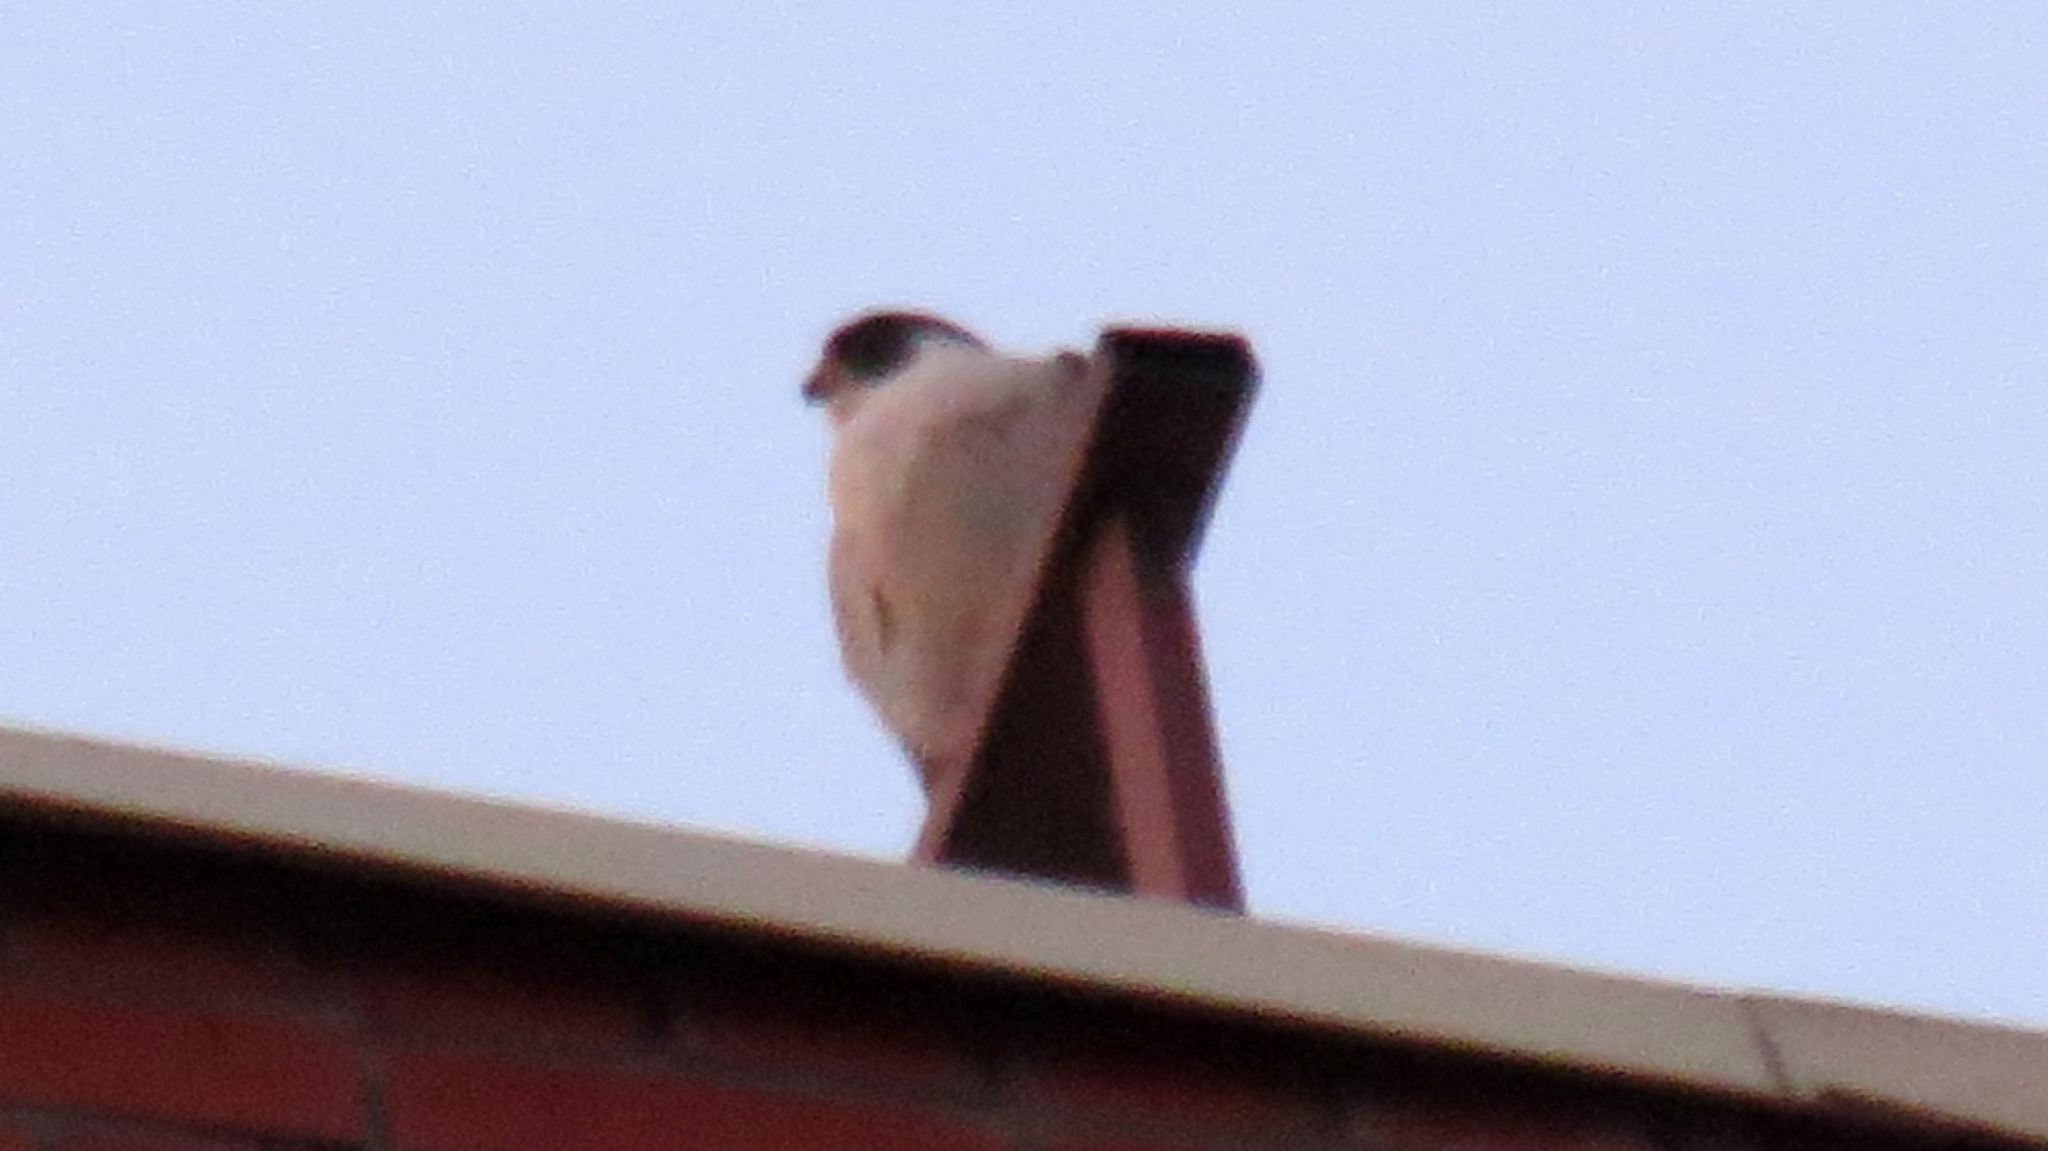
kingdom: Animalia
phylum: Chordata
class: Aves
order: Falconiformes
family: Falconidae
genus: Falco
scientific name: Falco peregrinus
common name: Peregrine falcon
